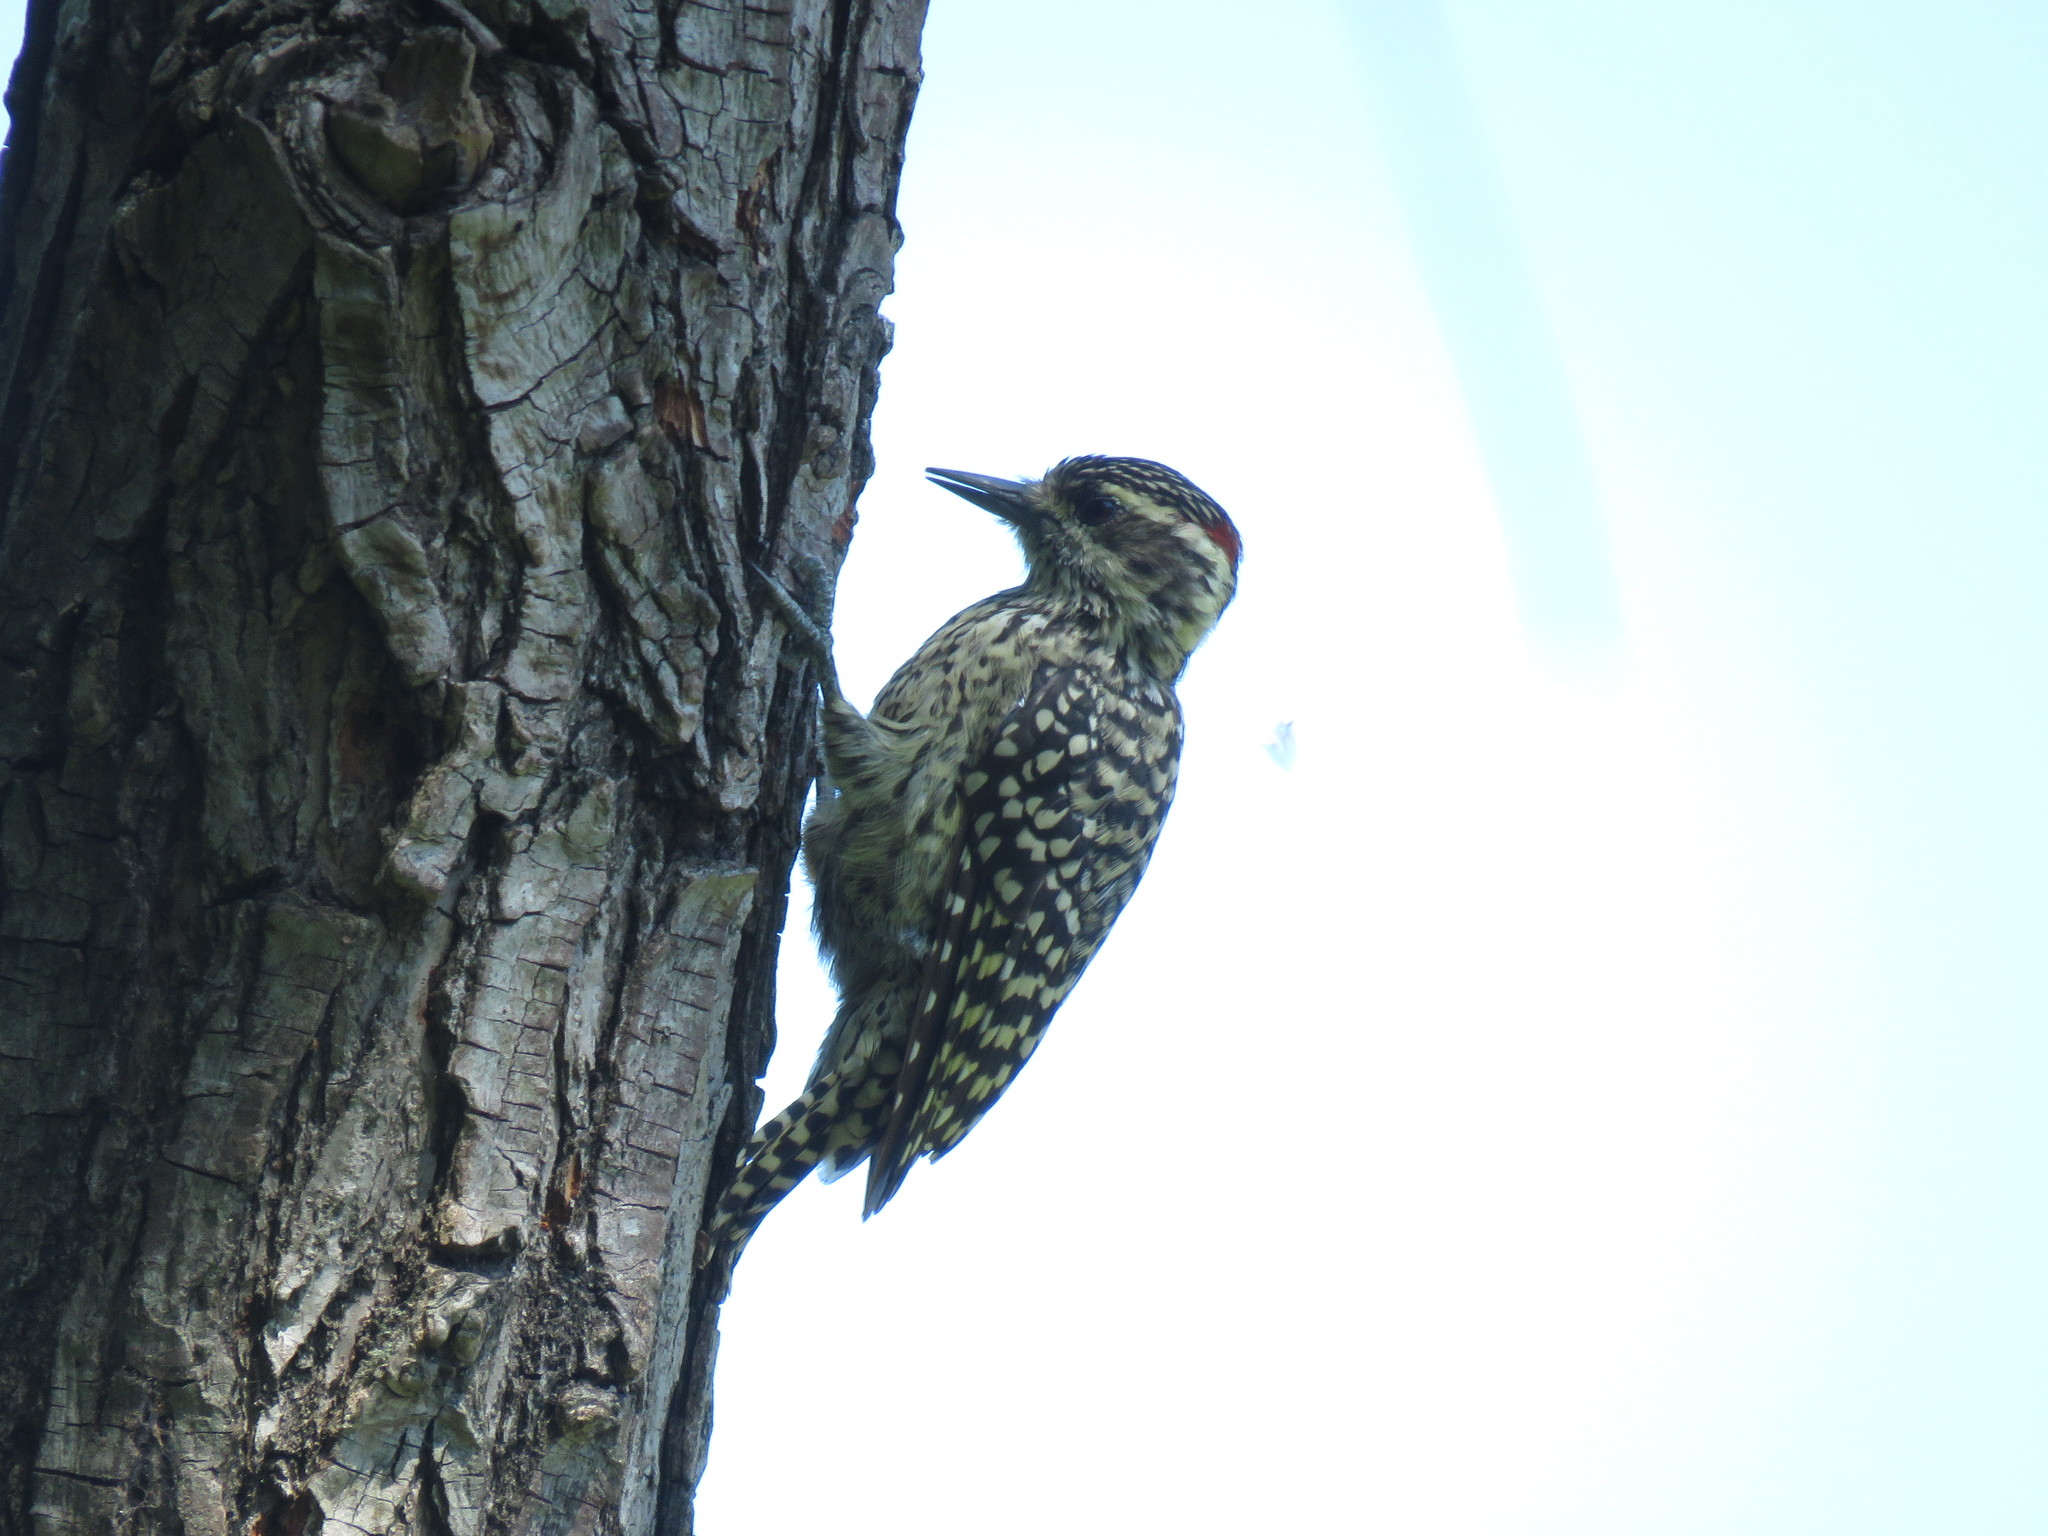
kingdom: Animalia
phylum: Chordata
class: Aves
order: Piciformes
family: Picidae
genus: Veniliornis
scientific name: Veniliornis mixtus
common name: Checkered woodpecker
